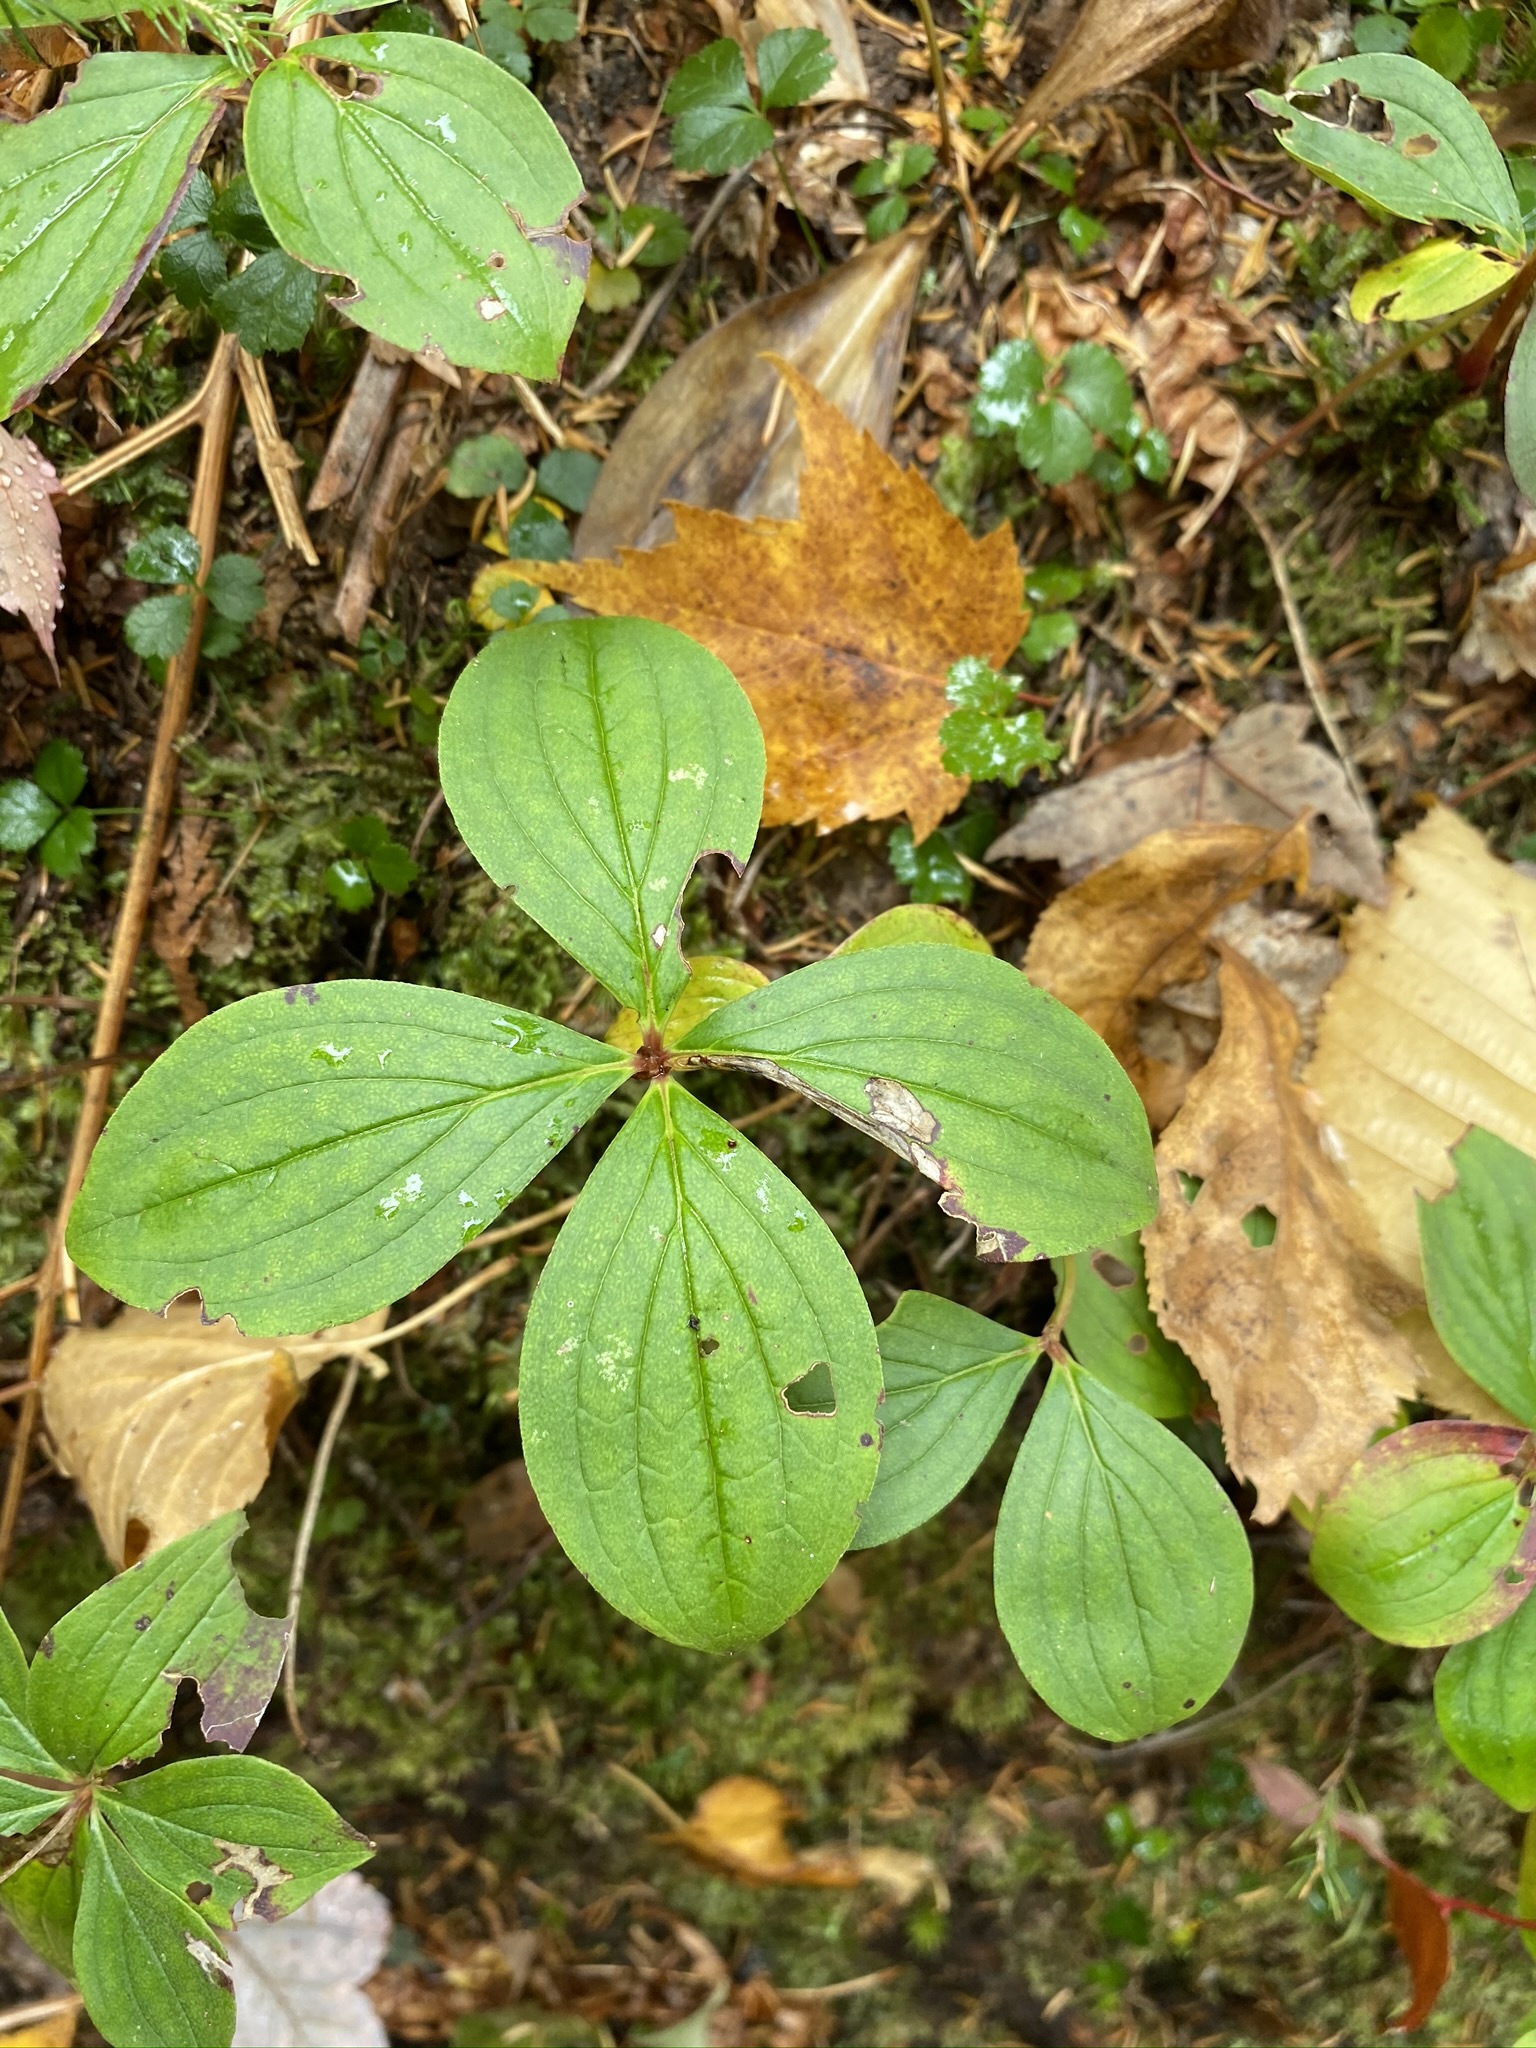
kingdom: Plantae
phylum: Tracheophyta
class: Magnoliopsida
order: Cornales
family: Cornaceae
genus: Cornus
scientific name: Cornus canadensis
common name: Creeping dogwood
